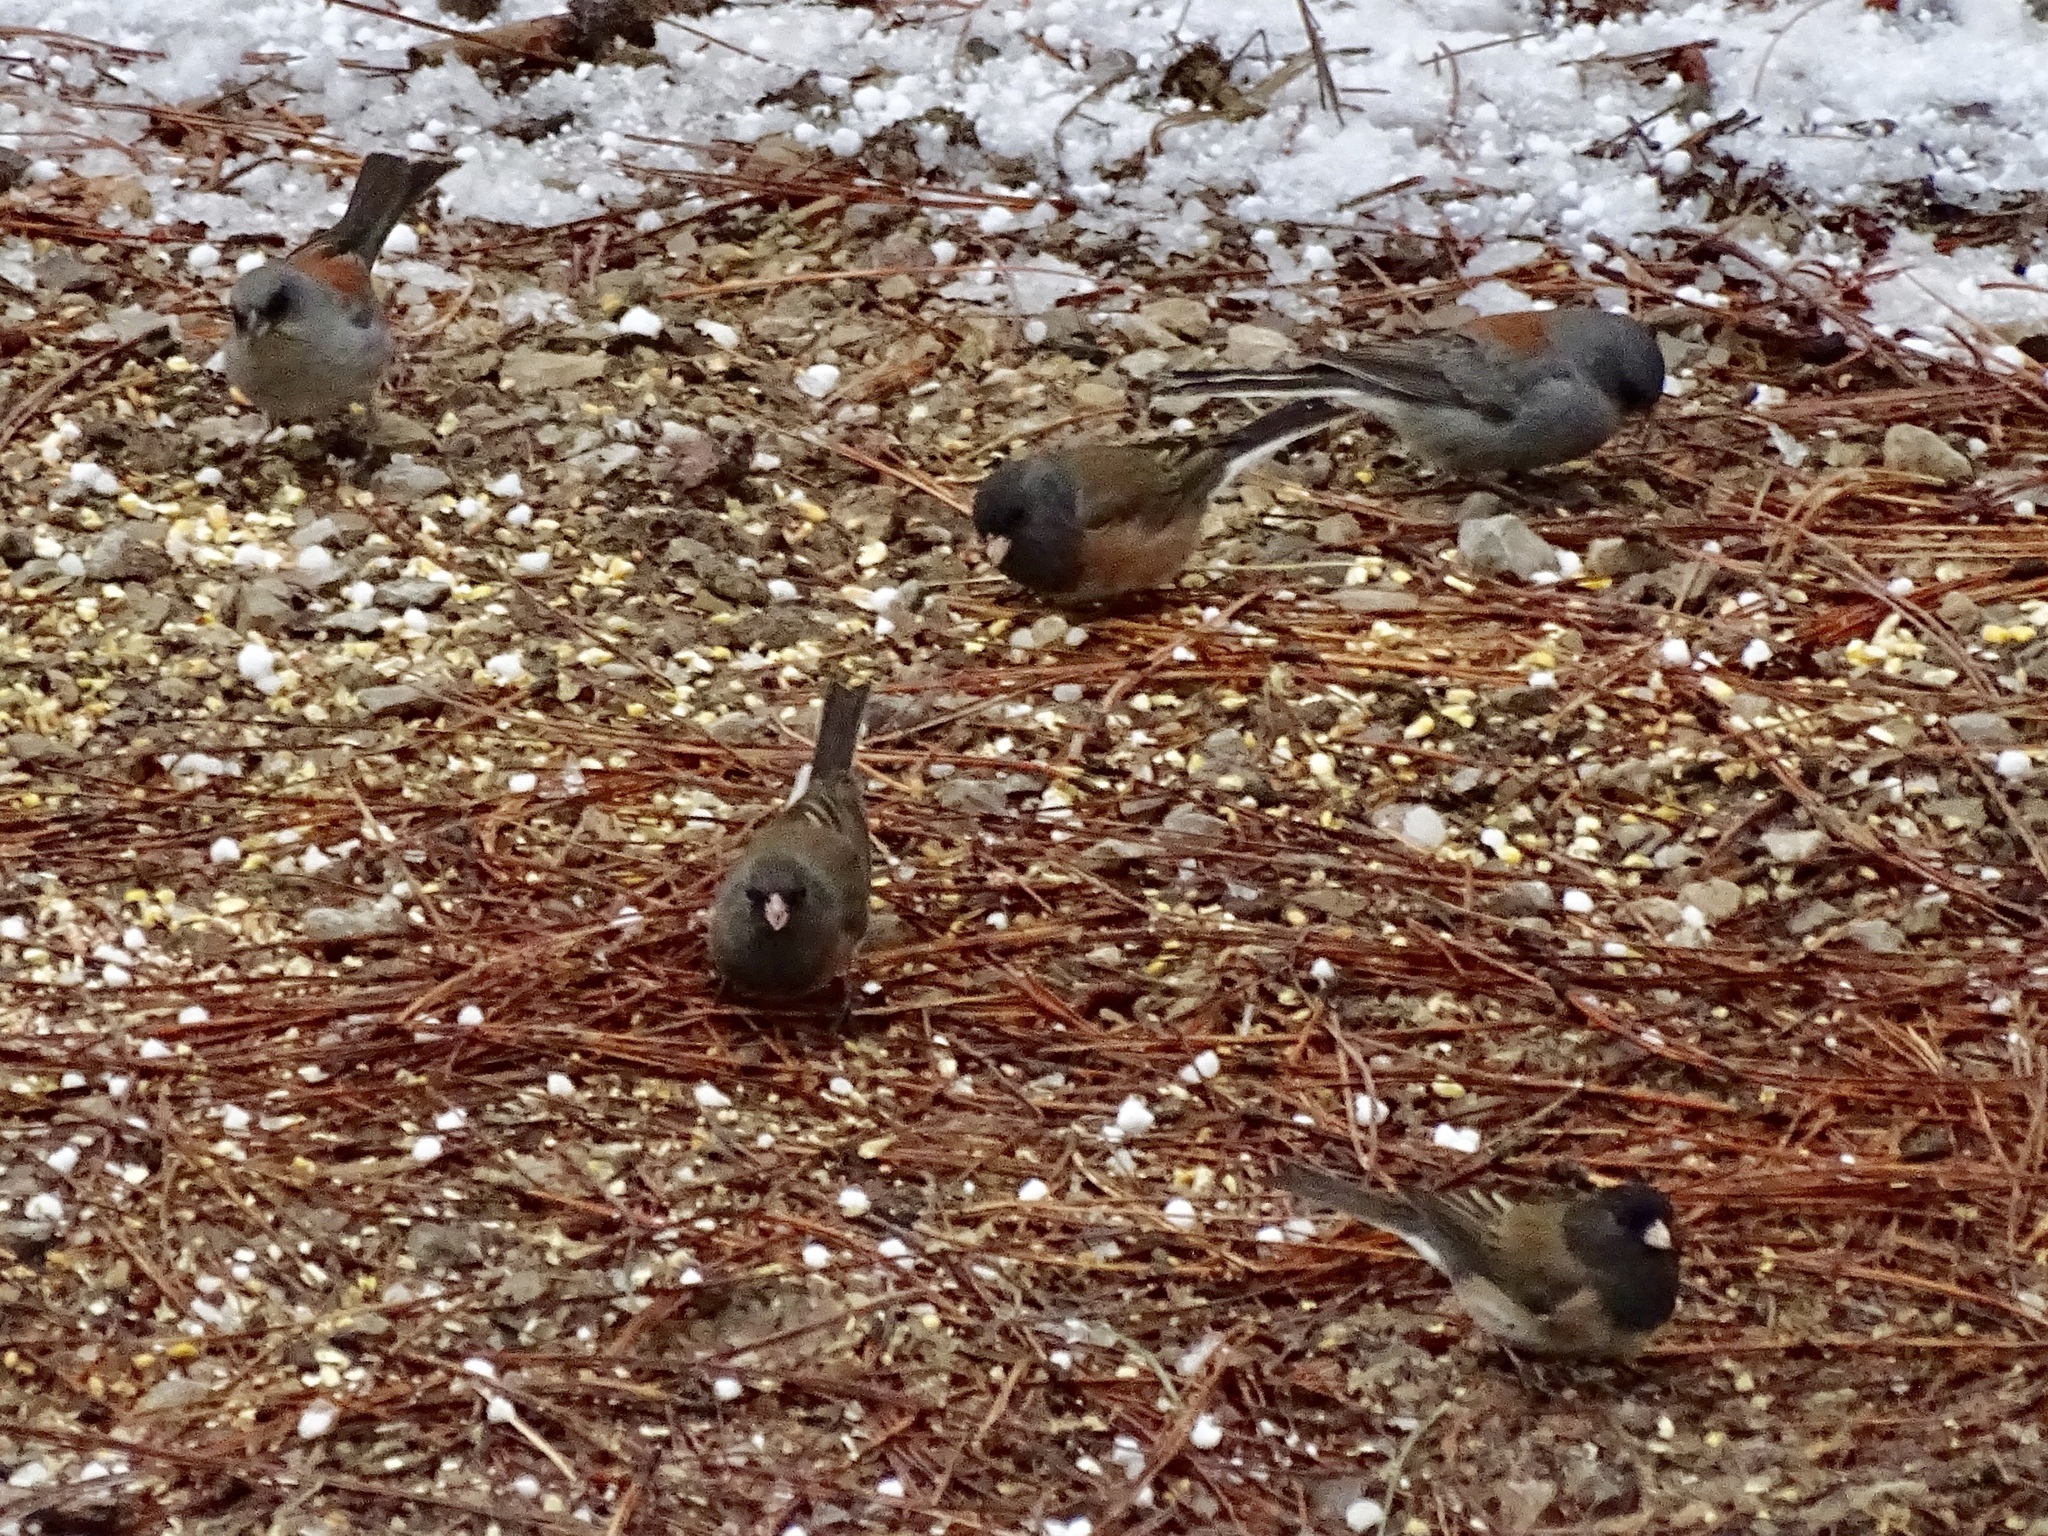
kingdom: Animalia
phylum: Chordata
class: Aves
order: Passeriformes
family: Passerellidae
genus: Junco
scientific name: Junco hyemalis
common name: Dark-eyed junco
